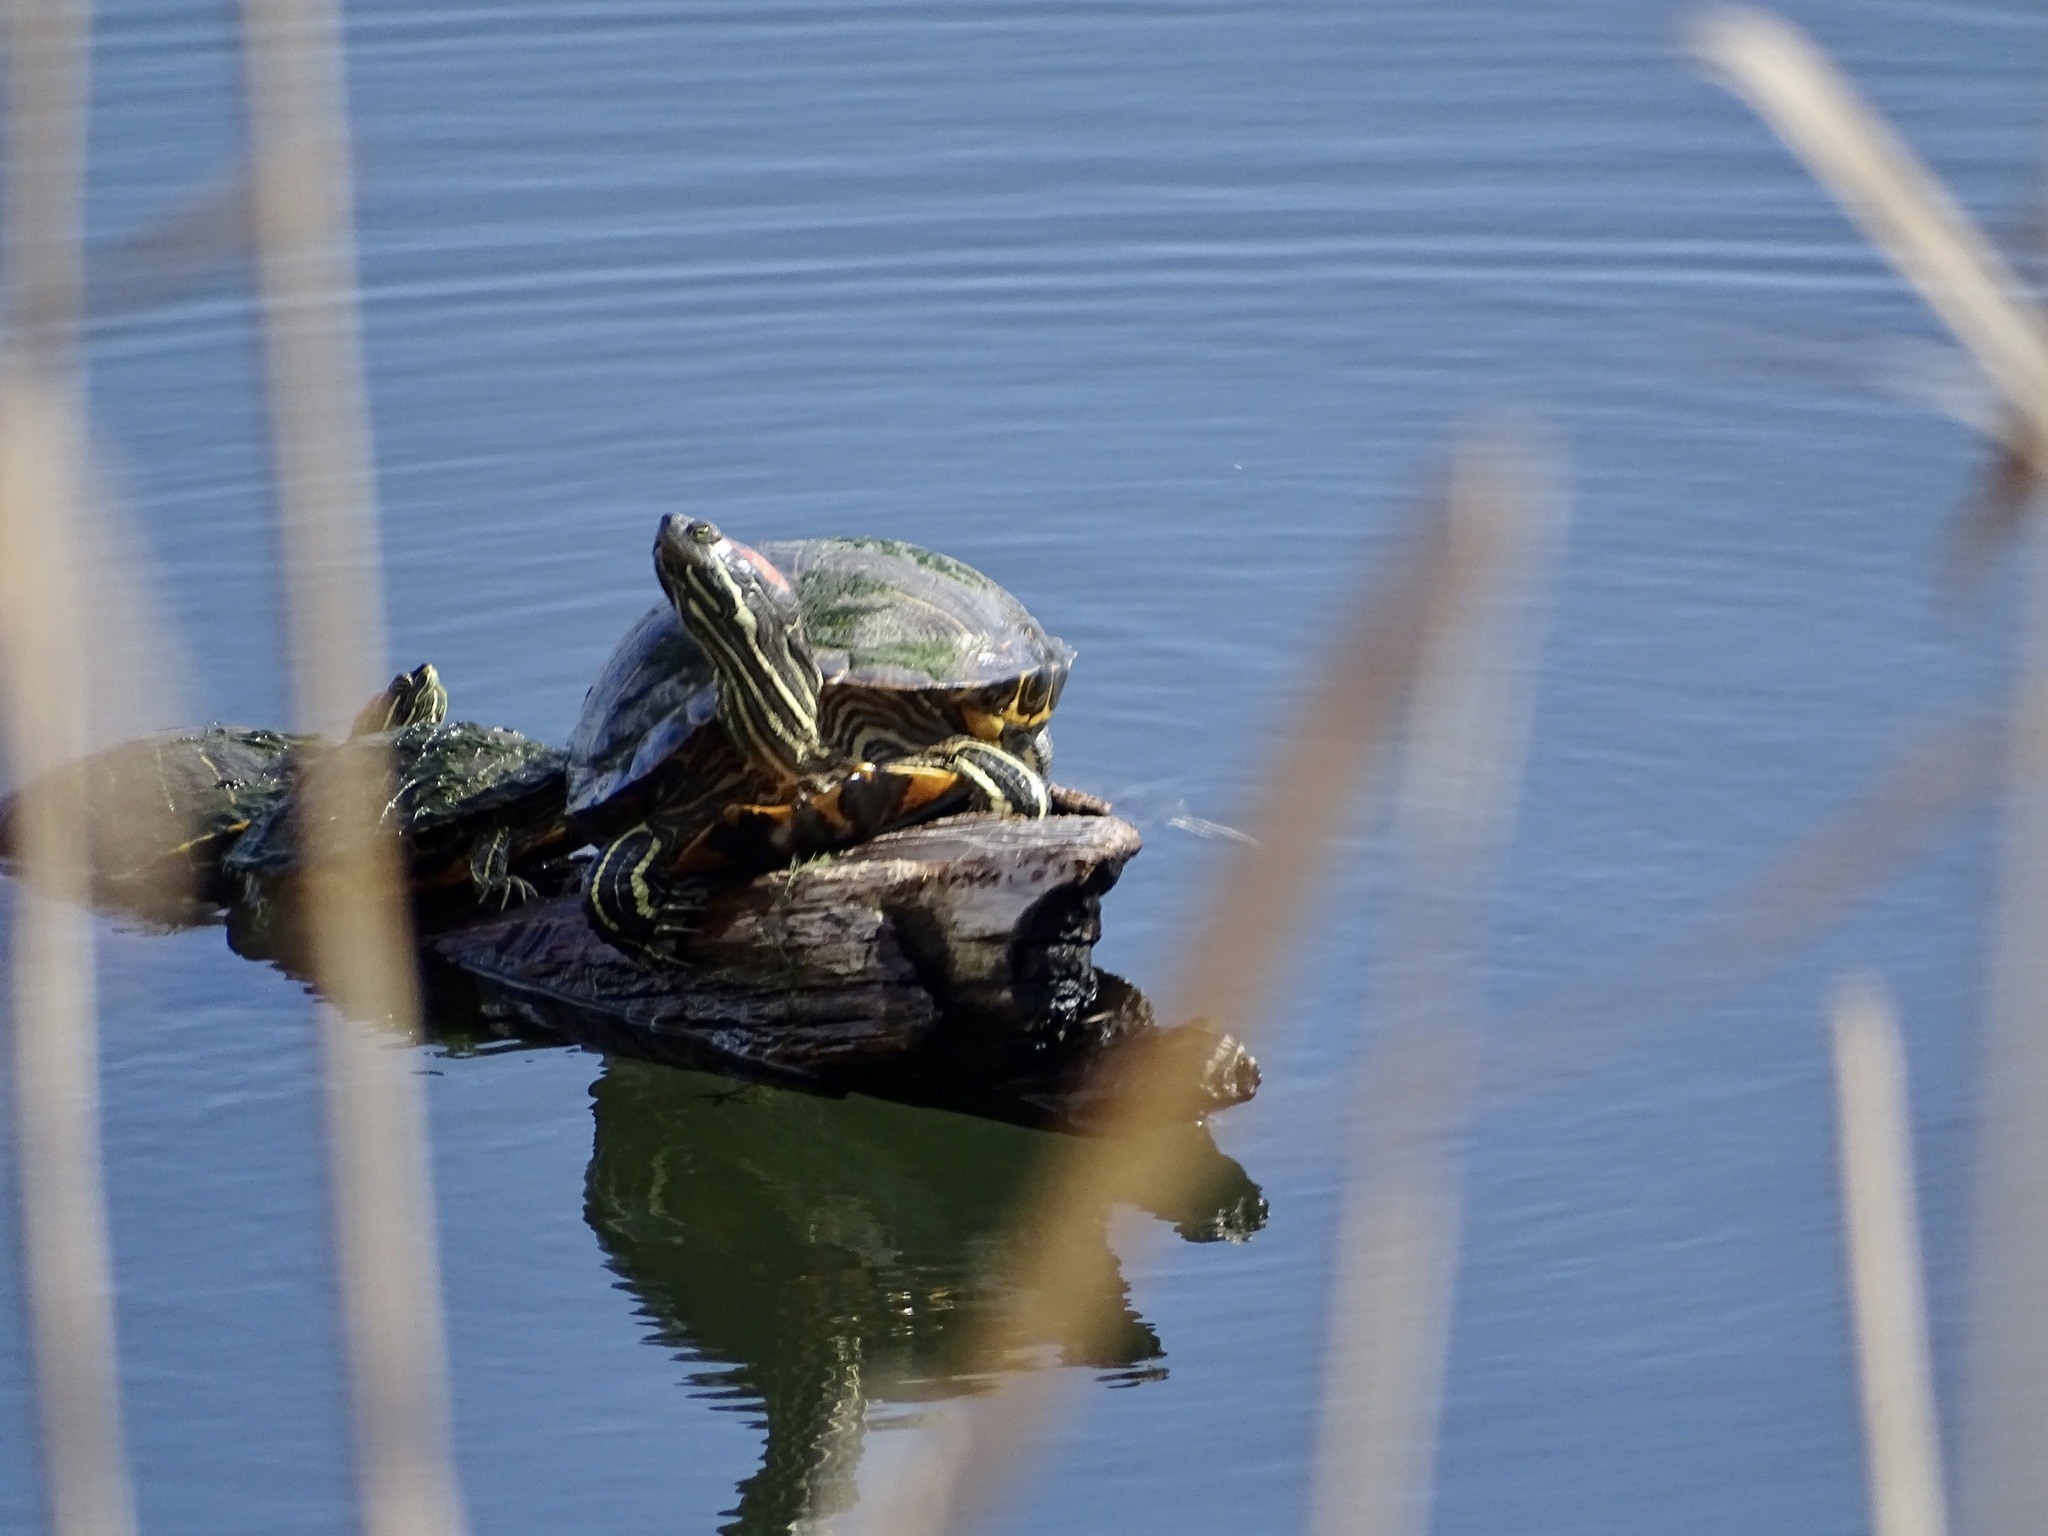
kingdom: Animalia
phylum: Chordata
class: Testudines
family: Emydidae
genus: Trachemys
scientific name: Trachemys scripta
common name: Slider
